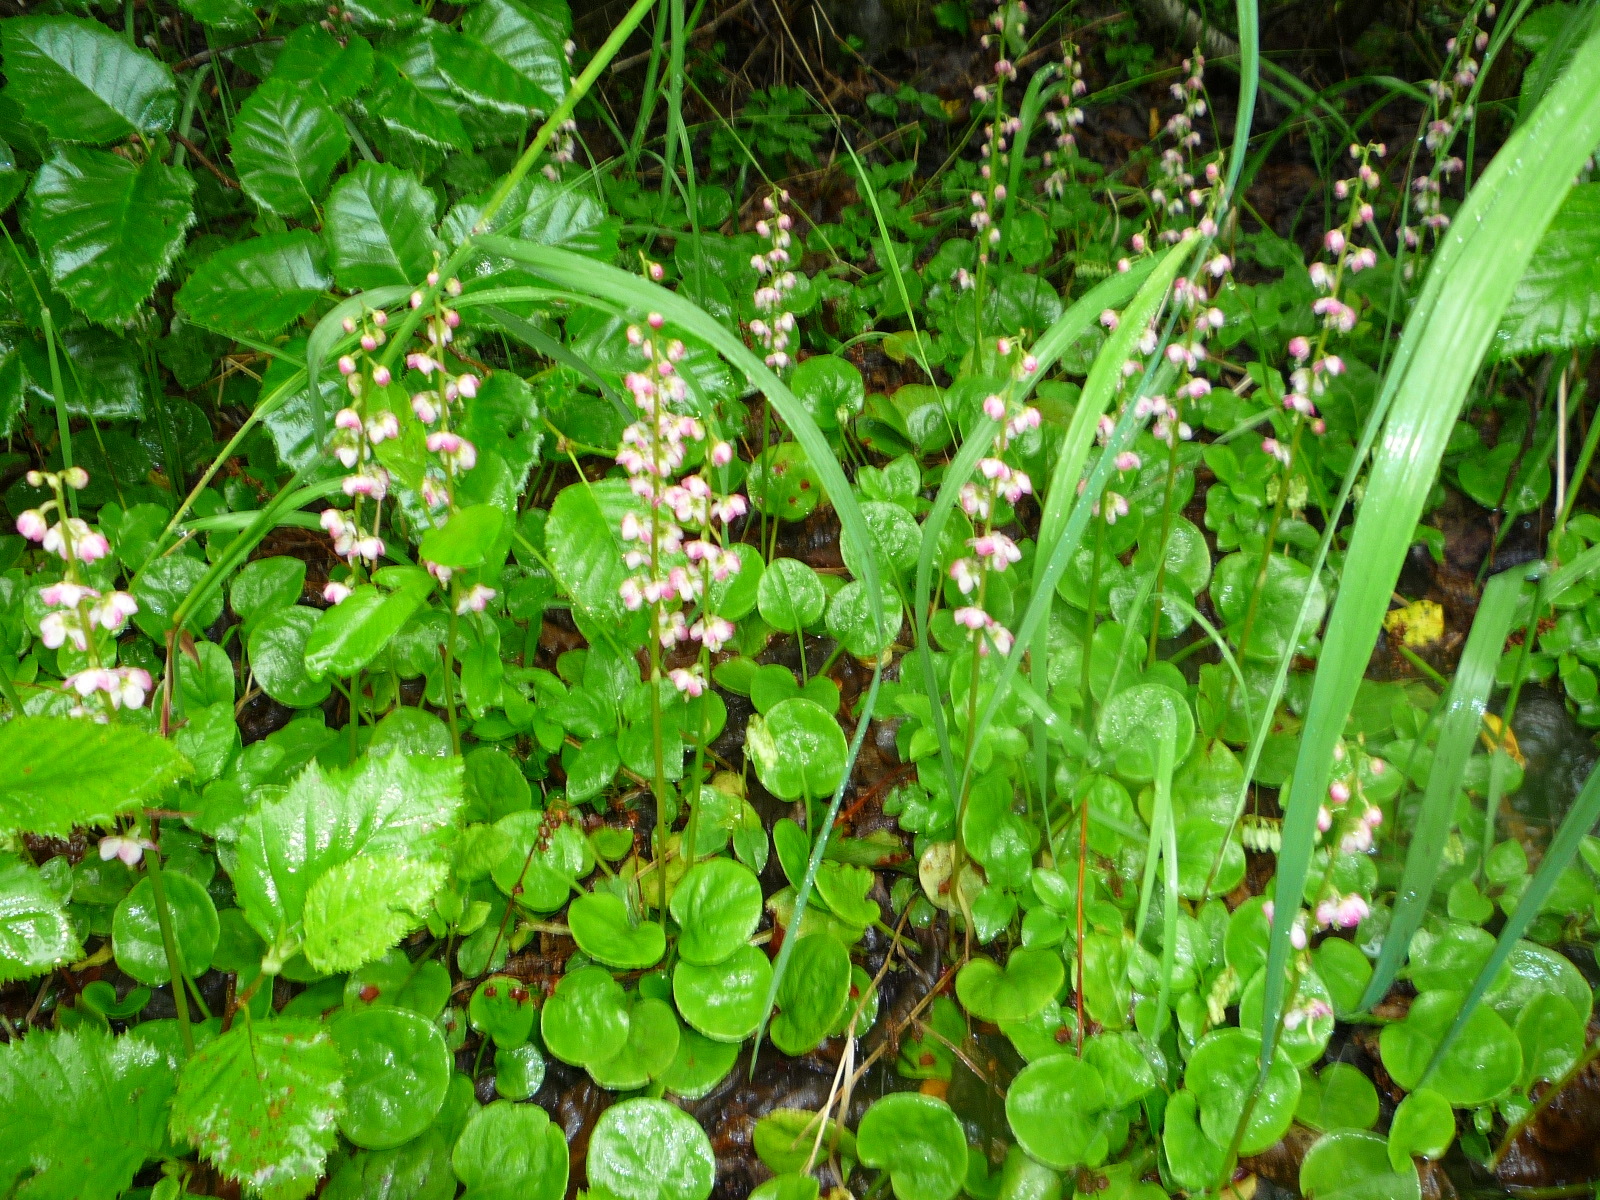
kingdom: Plantae
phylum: Tracheophyta
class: Magnoliopsida
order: Ericales
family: Ericaceae
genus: Pyrola
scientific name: Pyrola asarifolia
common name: Bog wintergreen
